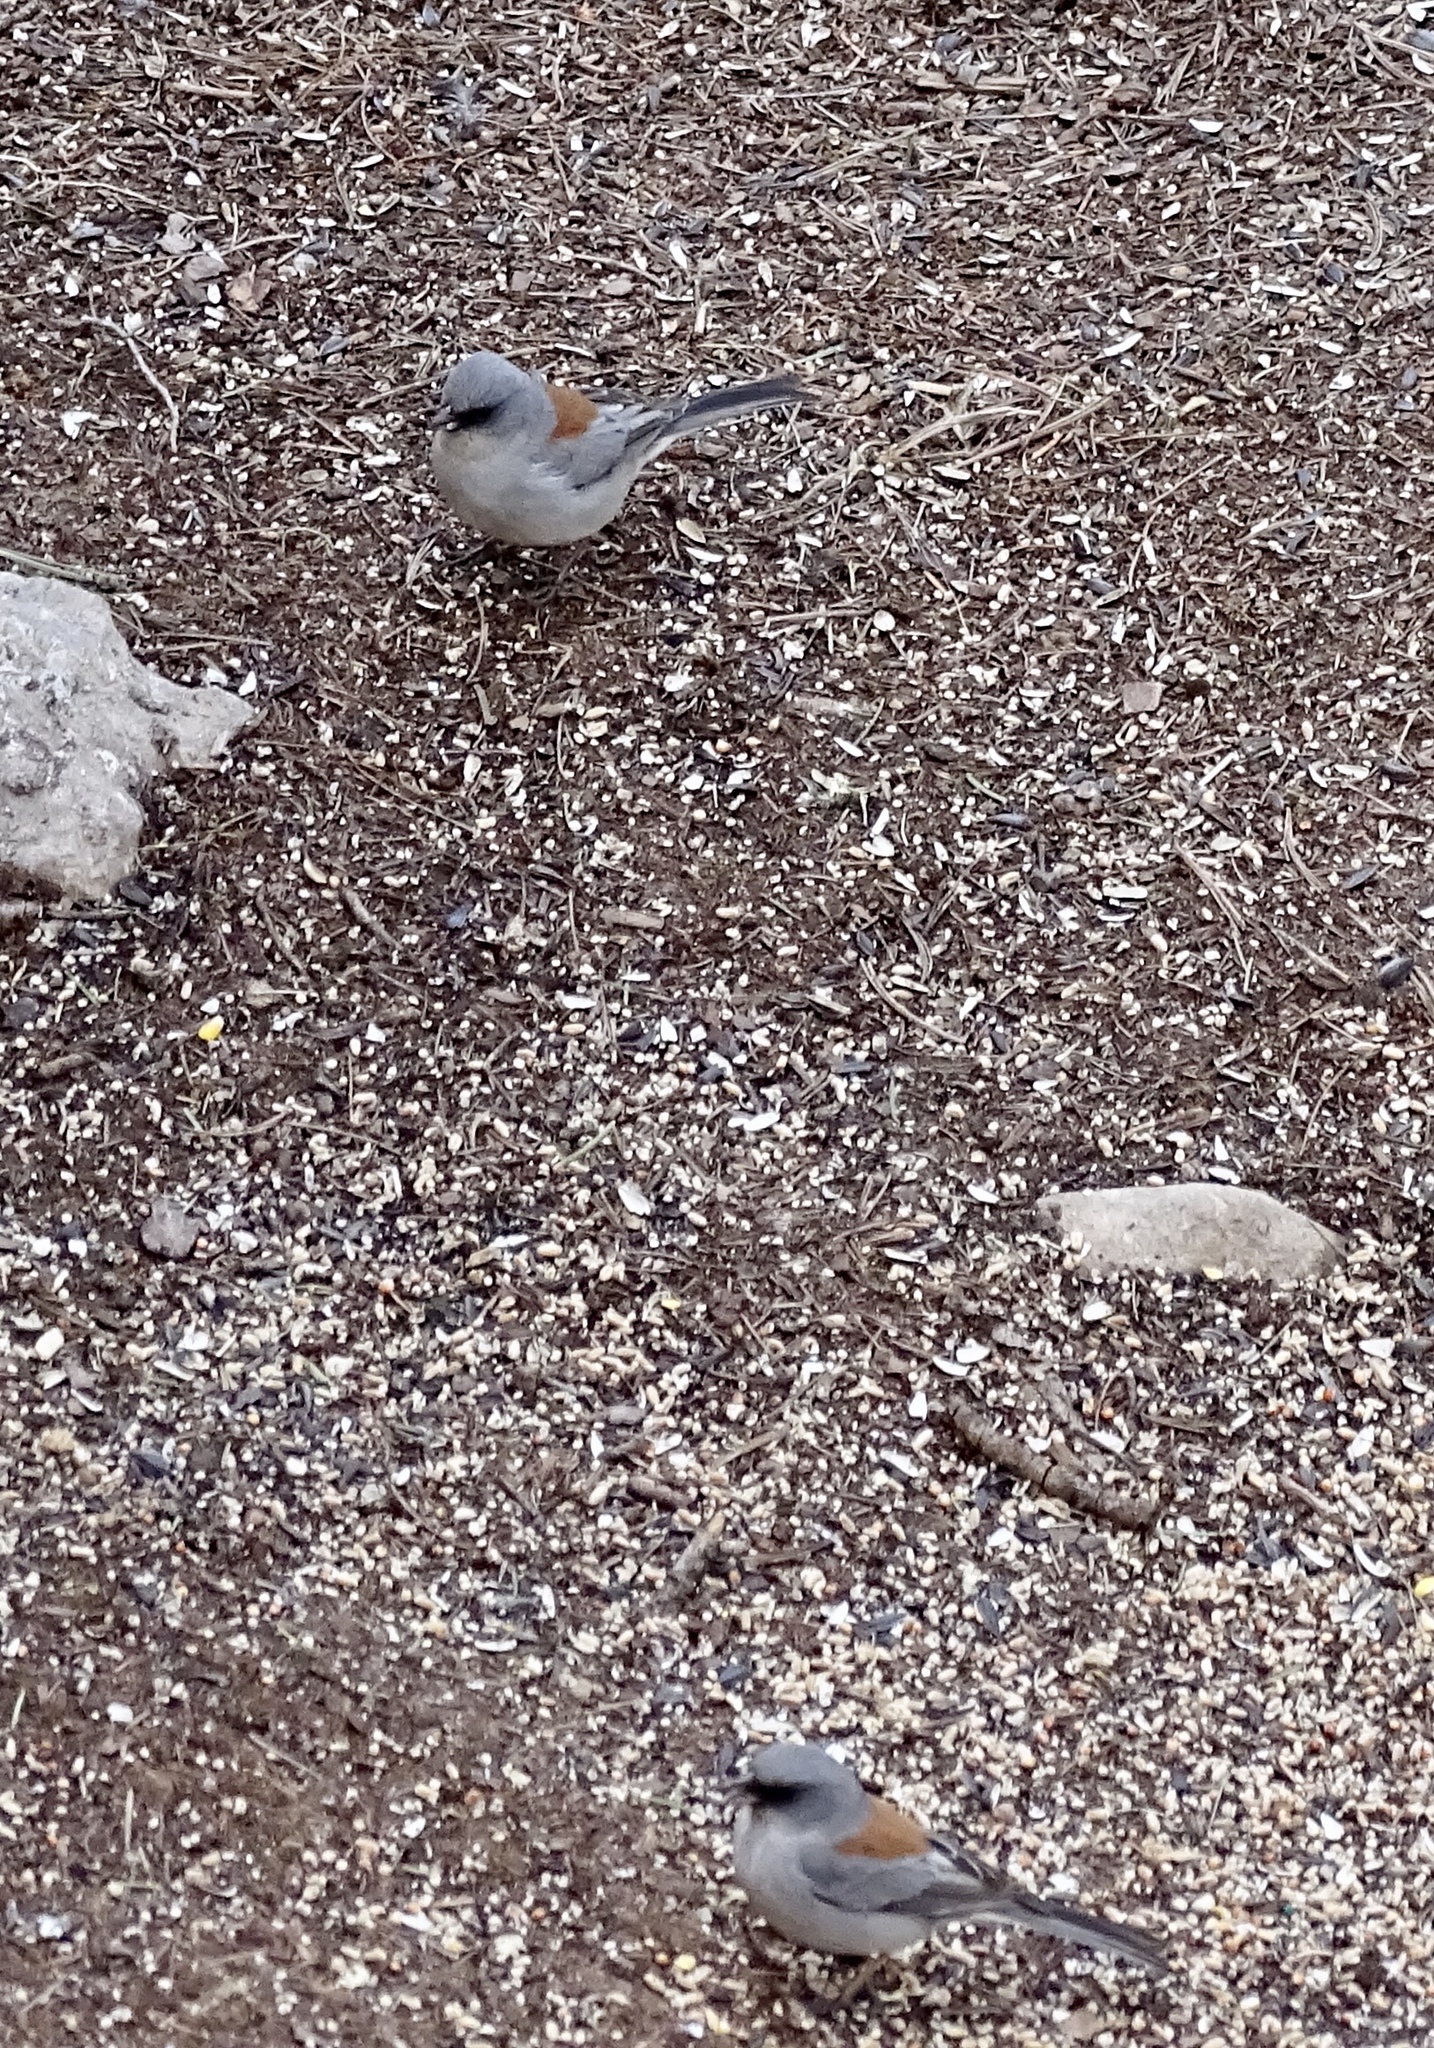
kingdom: Animalia
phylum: Chordata
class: Aves
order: Passeriformes
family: Passerellidae
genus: Junco
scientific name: Junco hyemalis
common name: Dark-eyed junco
